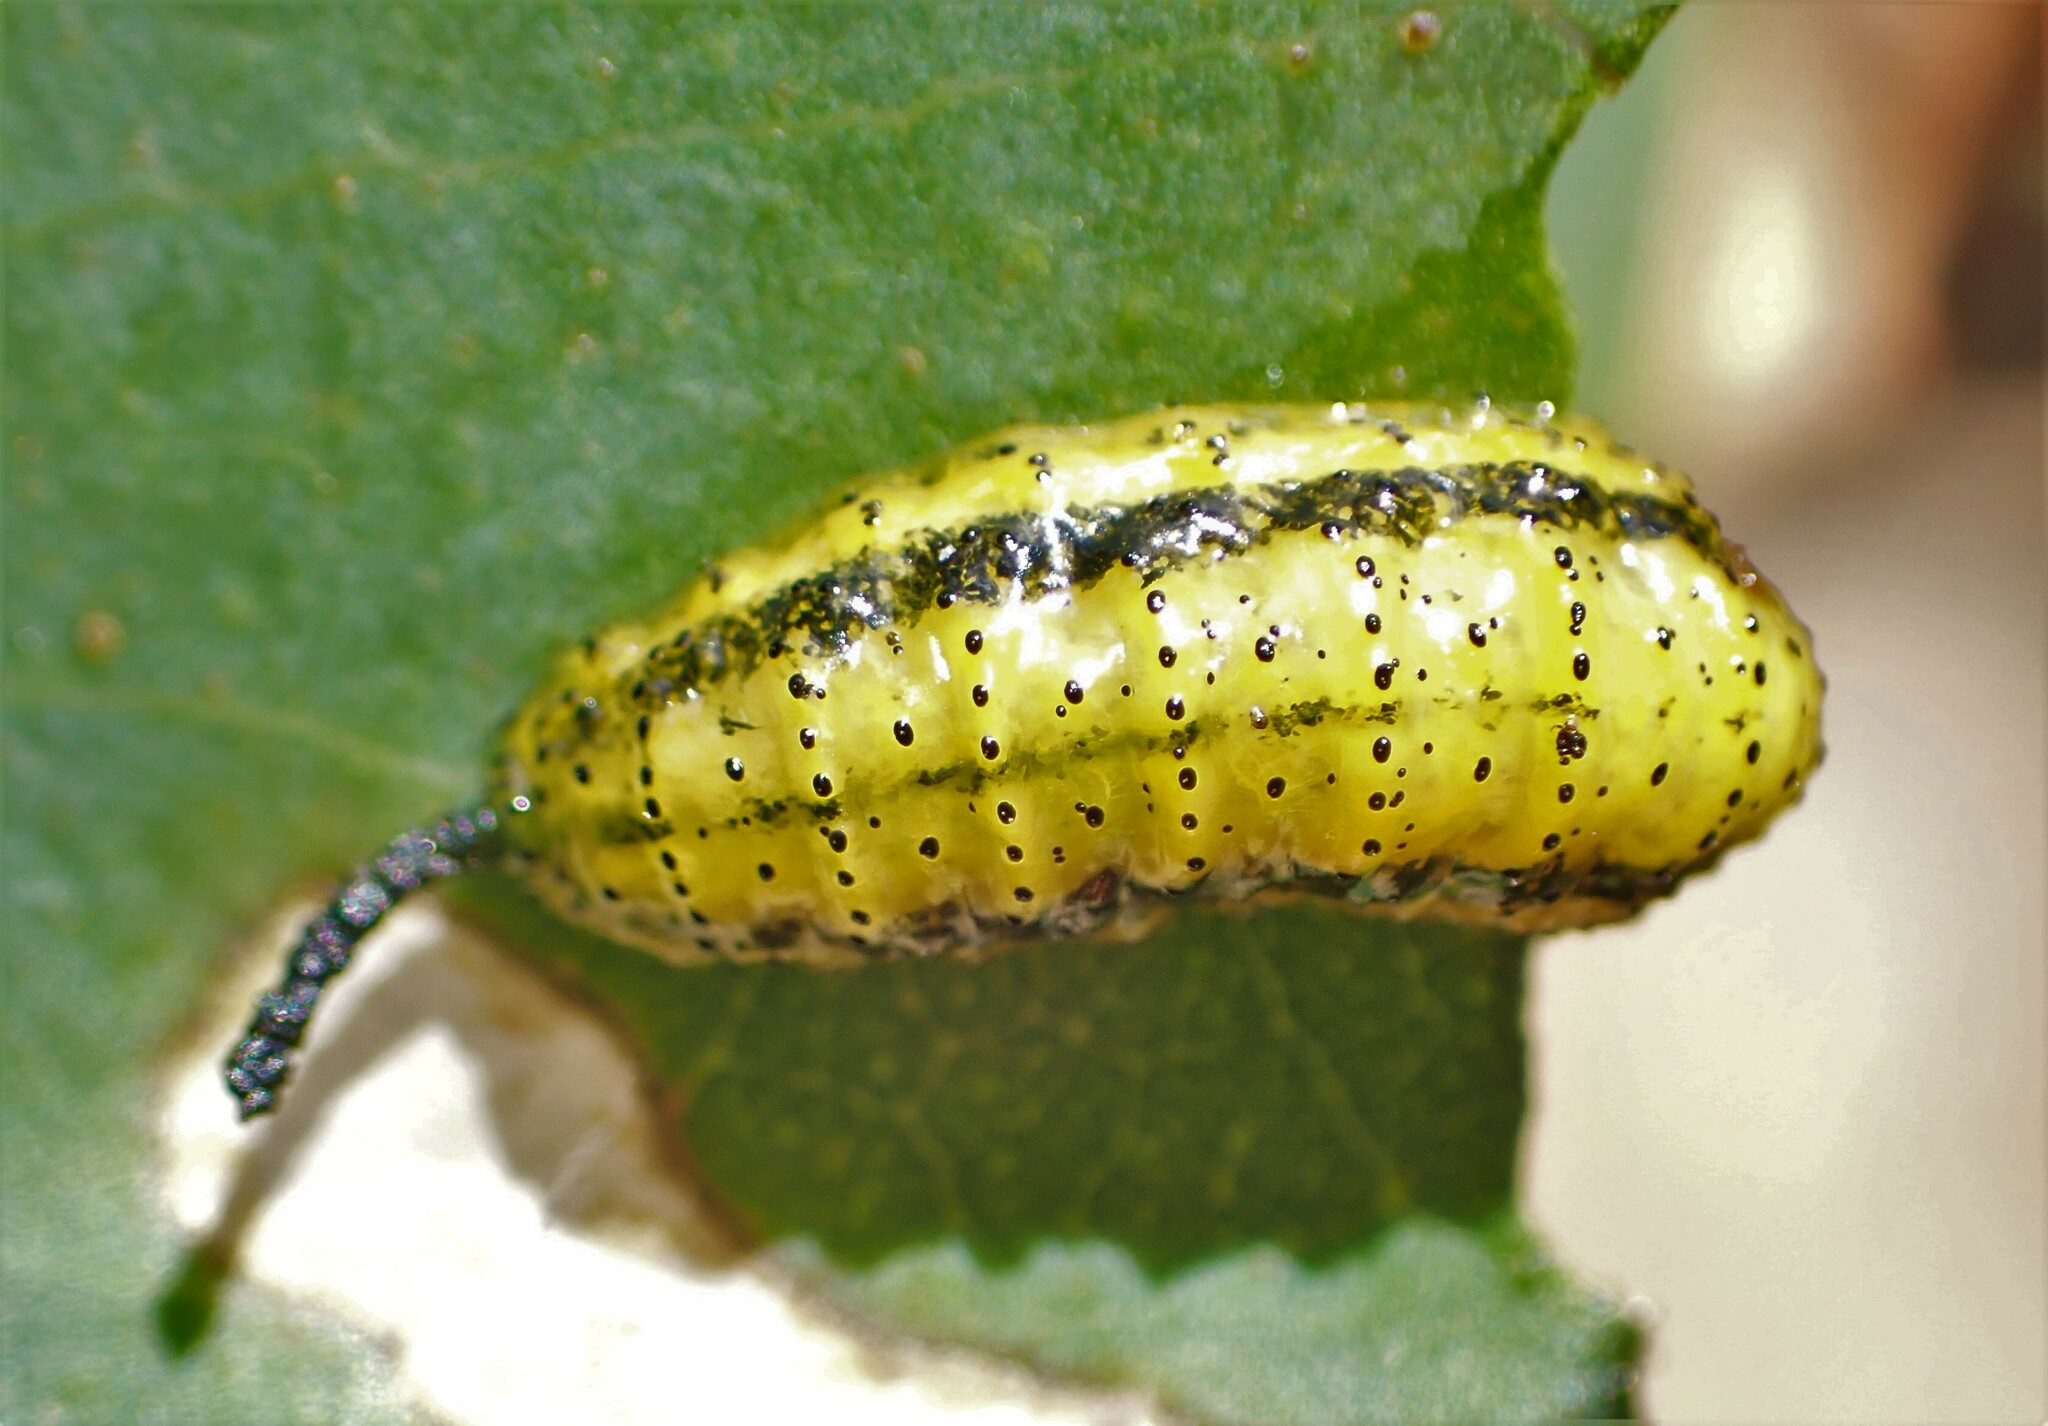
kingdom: Animalia
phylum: Arthropoda
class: Insecta
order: Coleoptera
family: Curculionidae
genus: Gonipterus
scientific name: Gonipterus platensis
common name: Eucalyptus snout beetle
